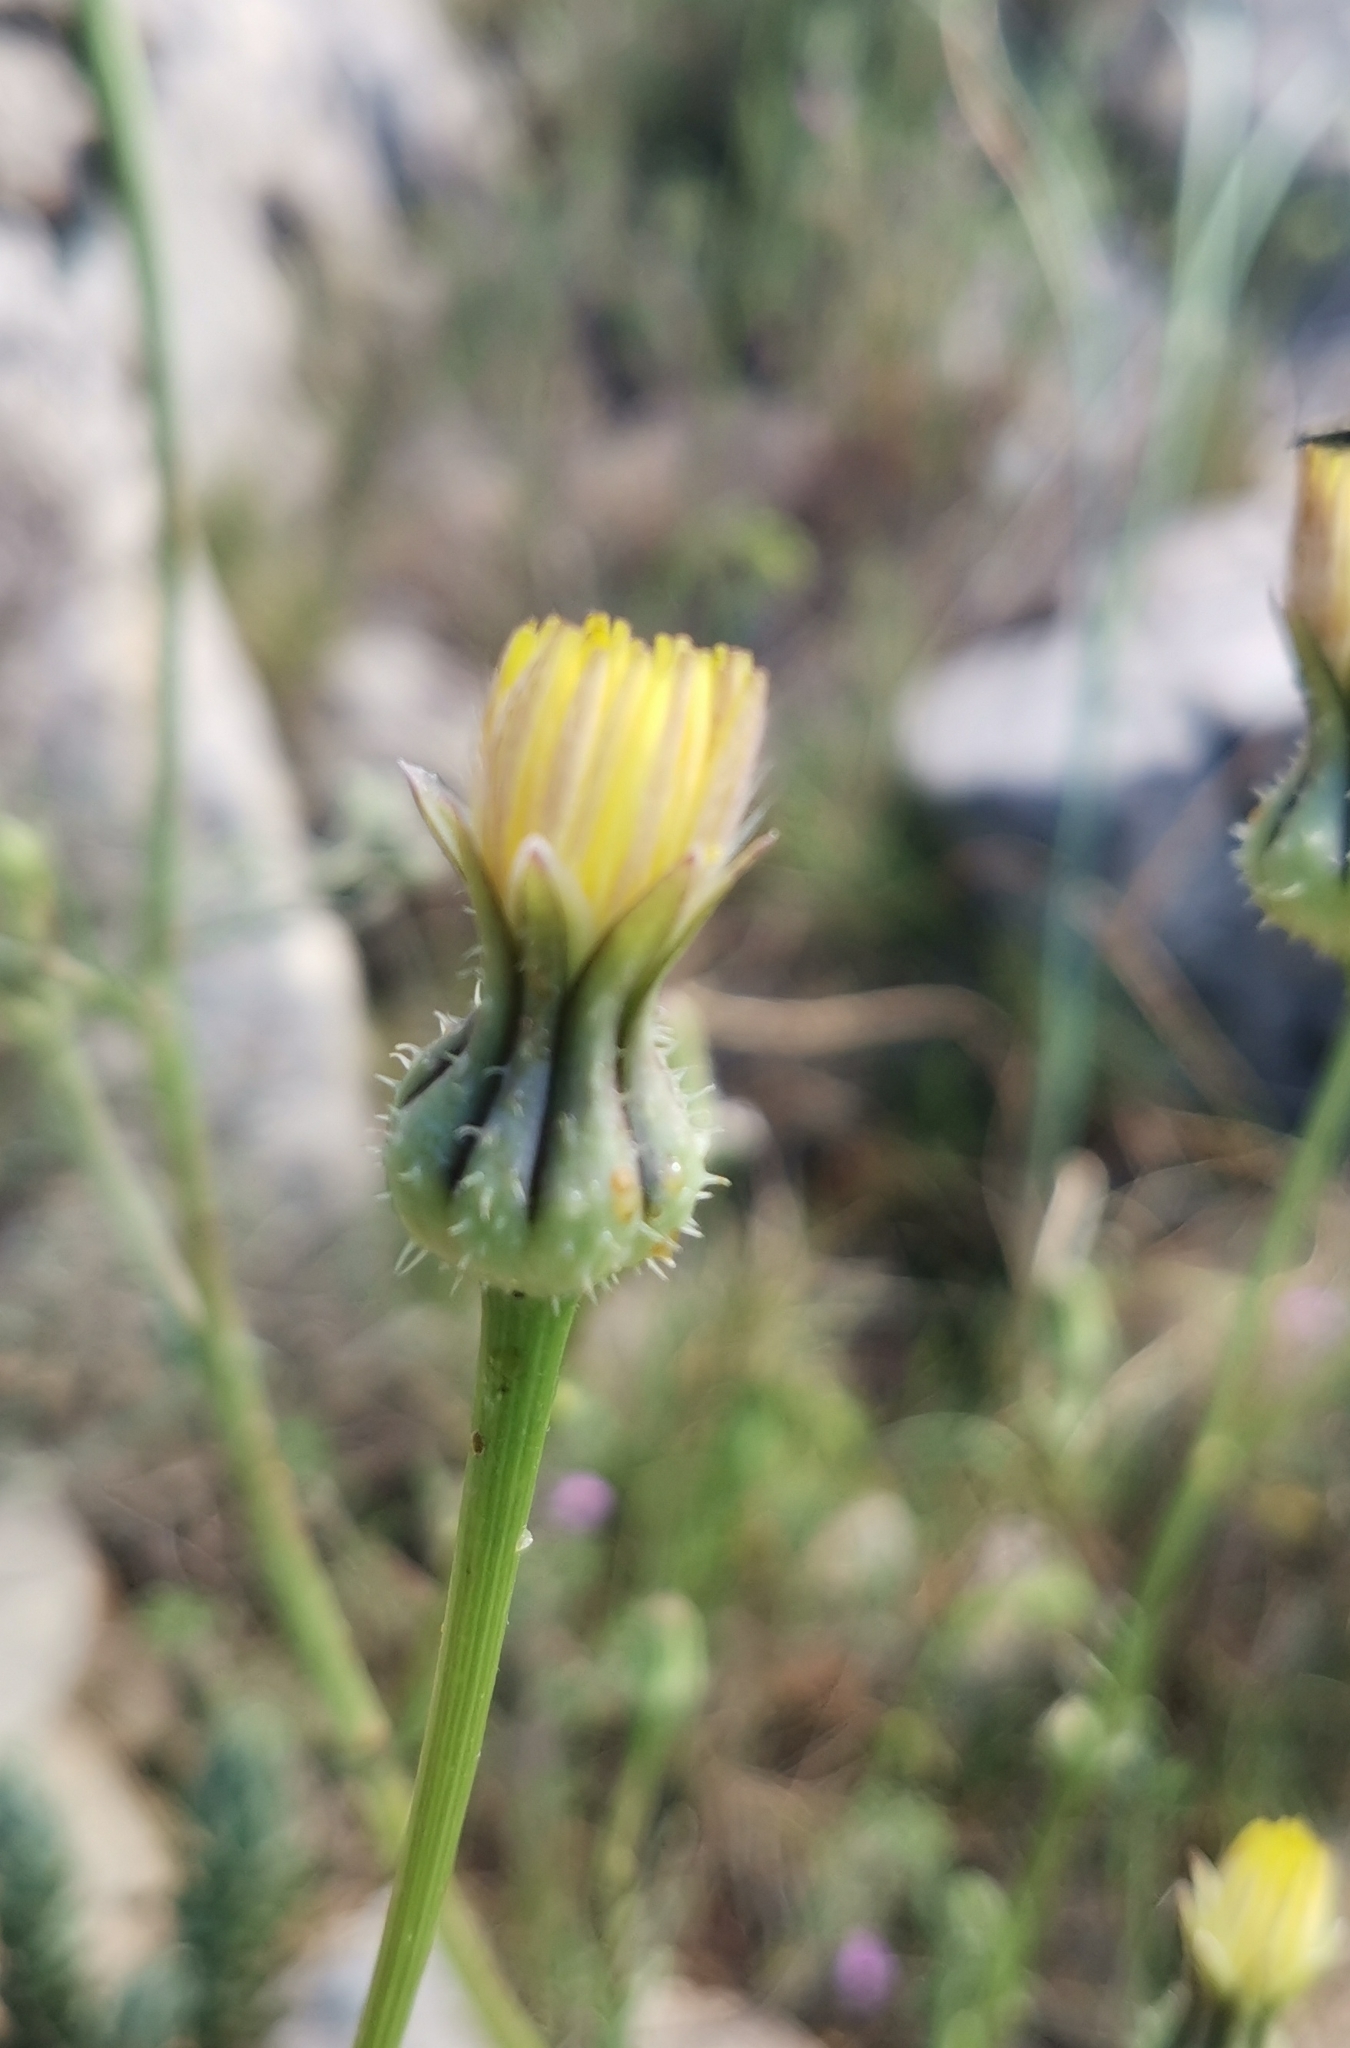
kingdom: Plantae
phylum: Tracheophyta
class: Magnoliopsida
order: Asterales
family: Asteraceae
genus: Urospermum
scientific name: Urospermum picroides
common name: False hawkbit
